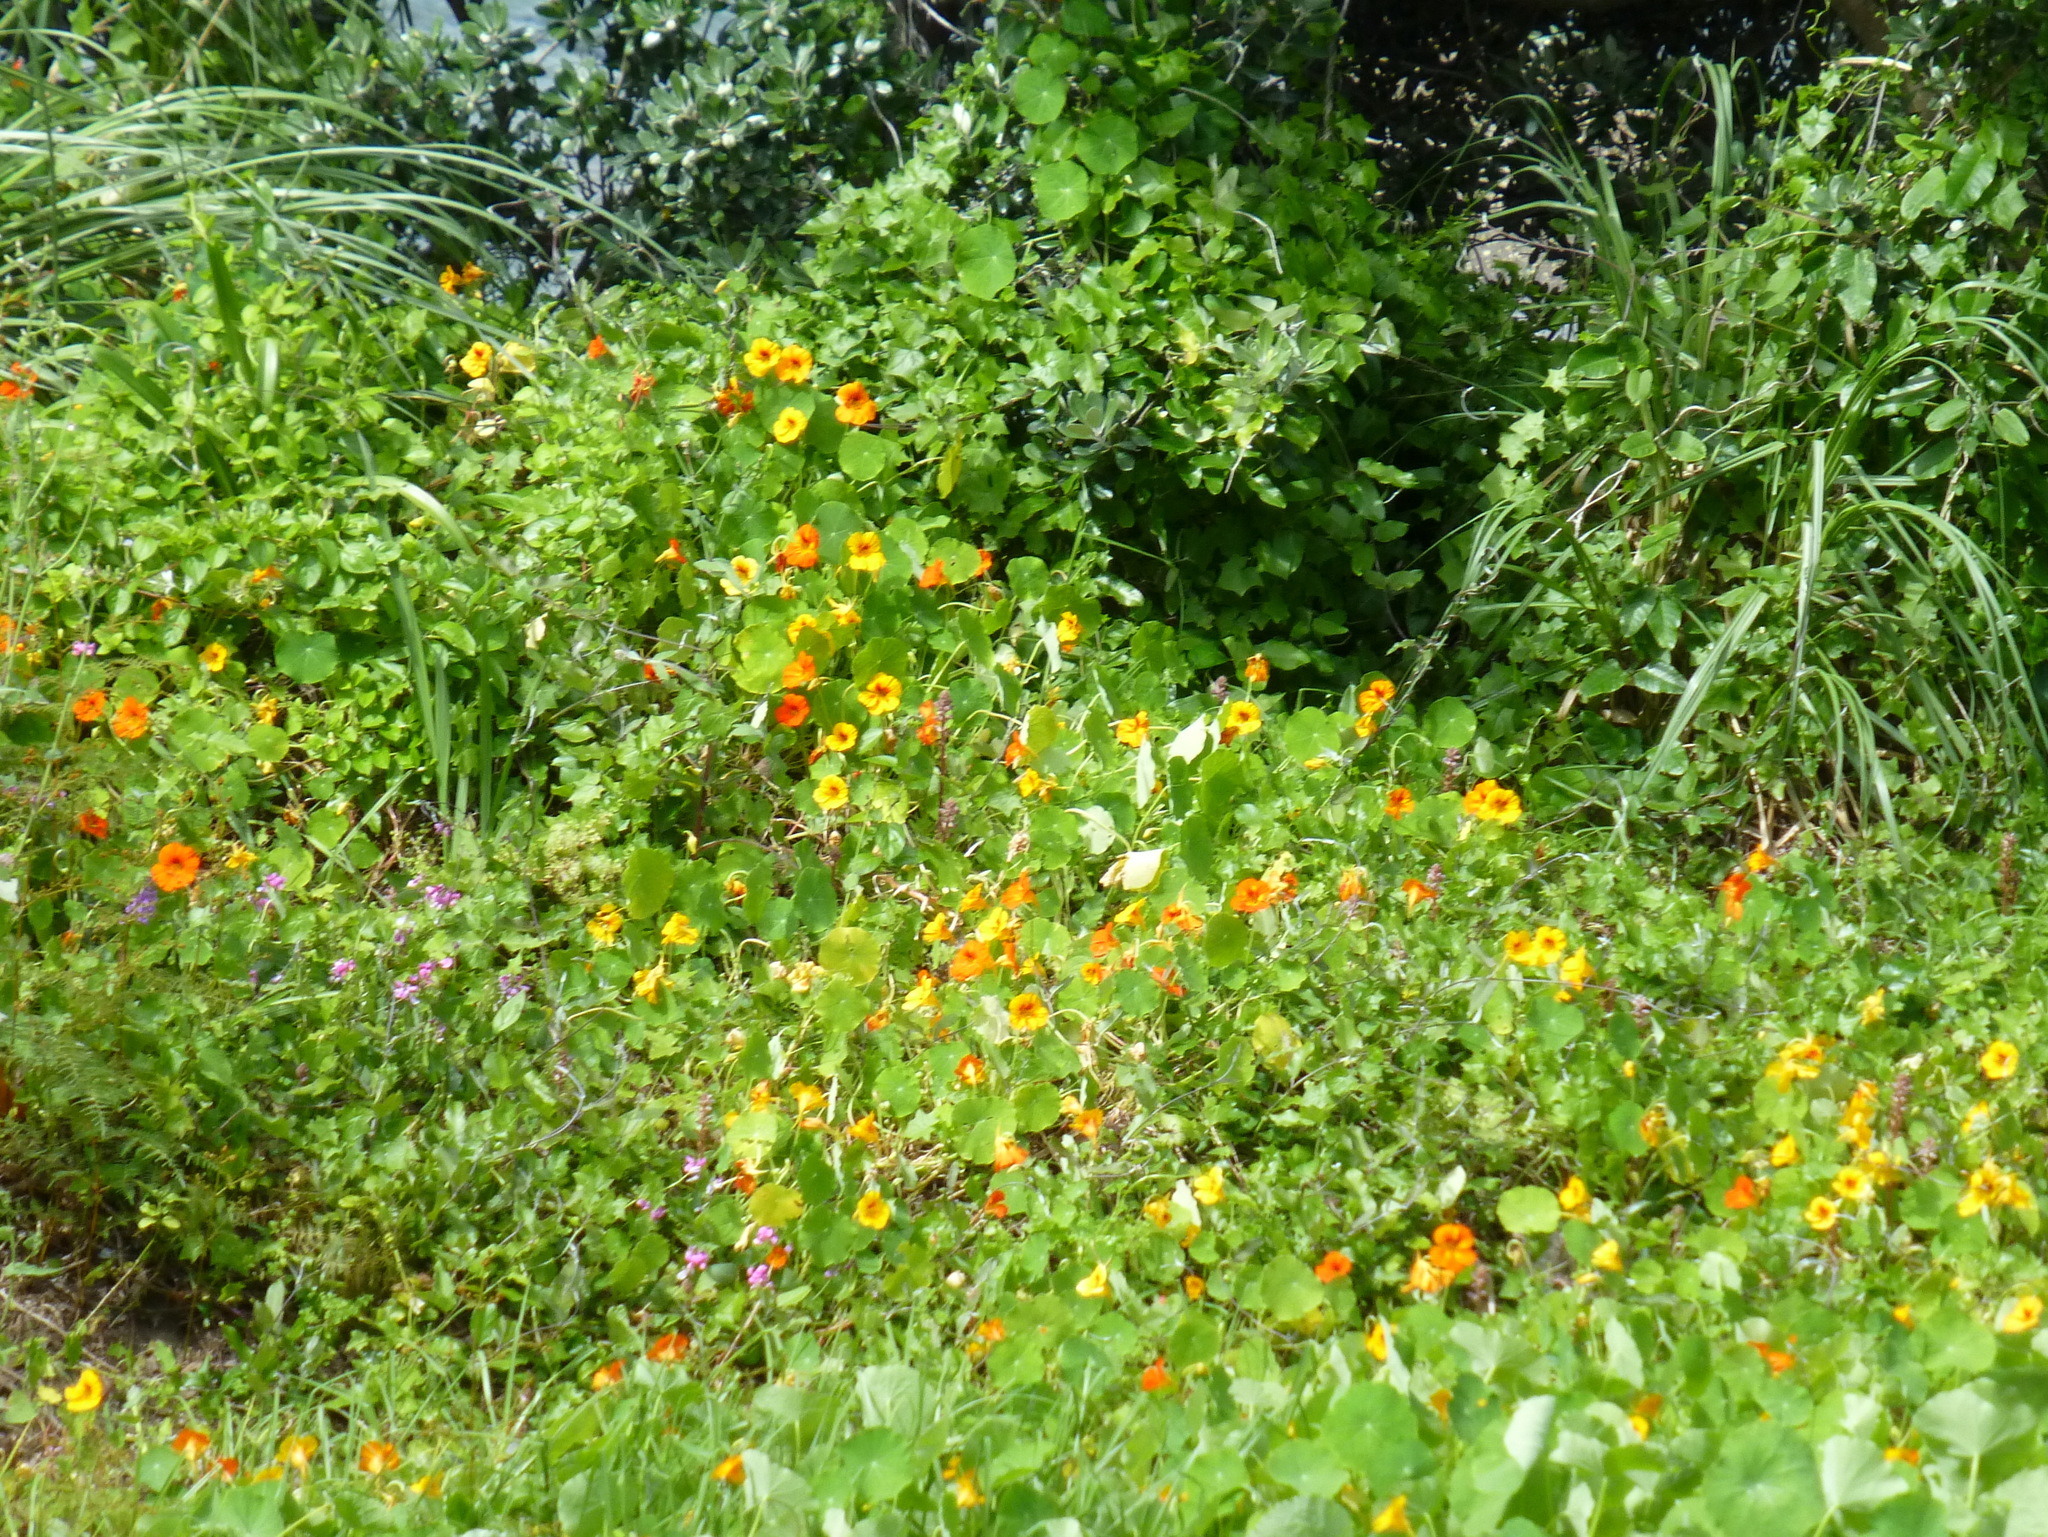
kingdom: Plantae
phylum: Tracheophyta
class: Magnoliopsida
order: Brassicales
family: Tropaeolaceae
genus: Tropaeolum
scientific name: Tropaeolum majus
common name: Nasturtium
